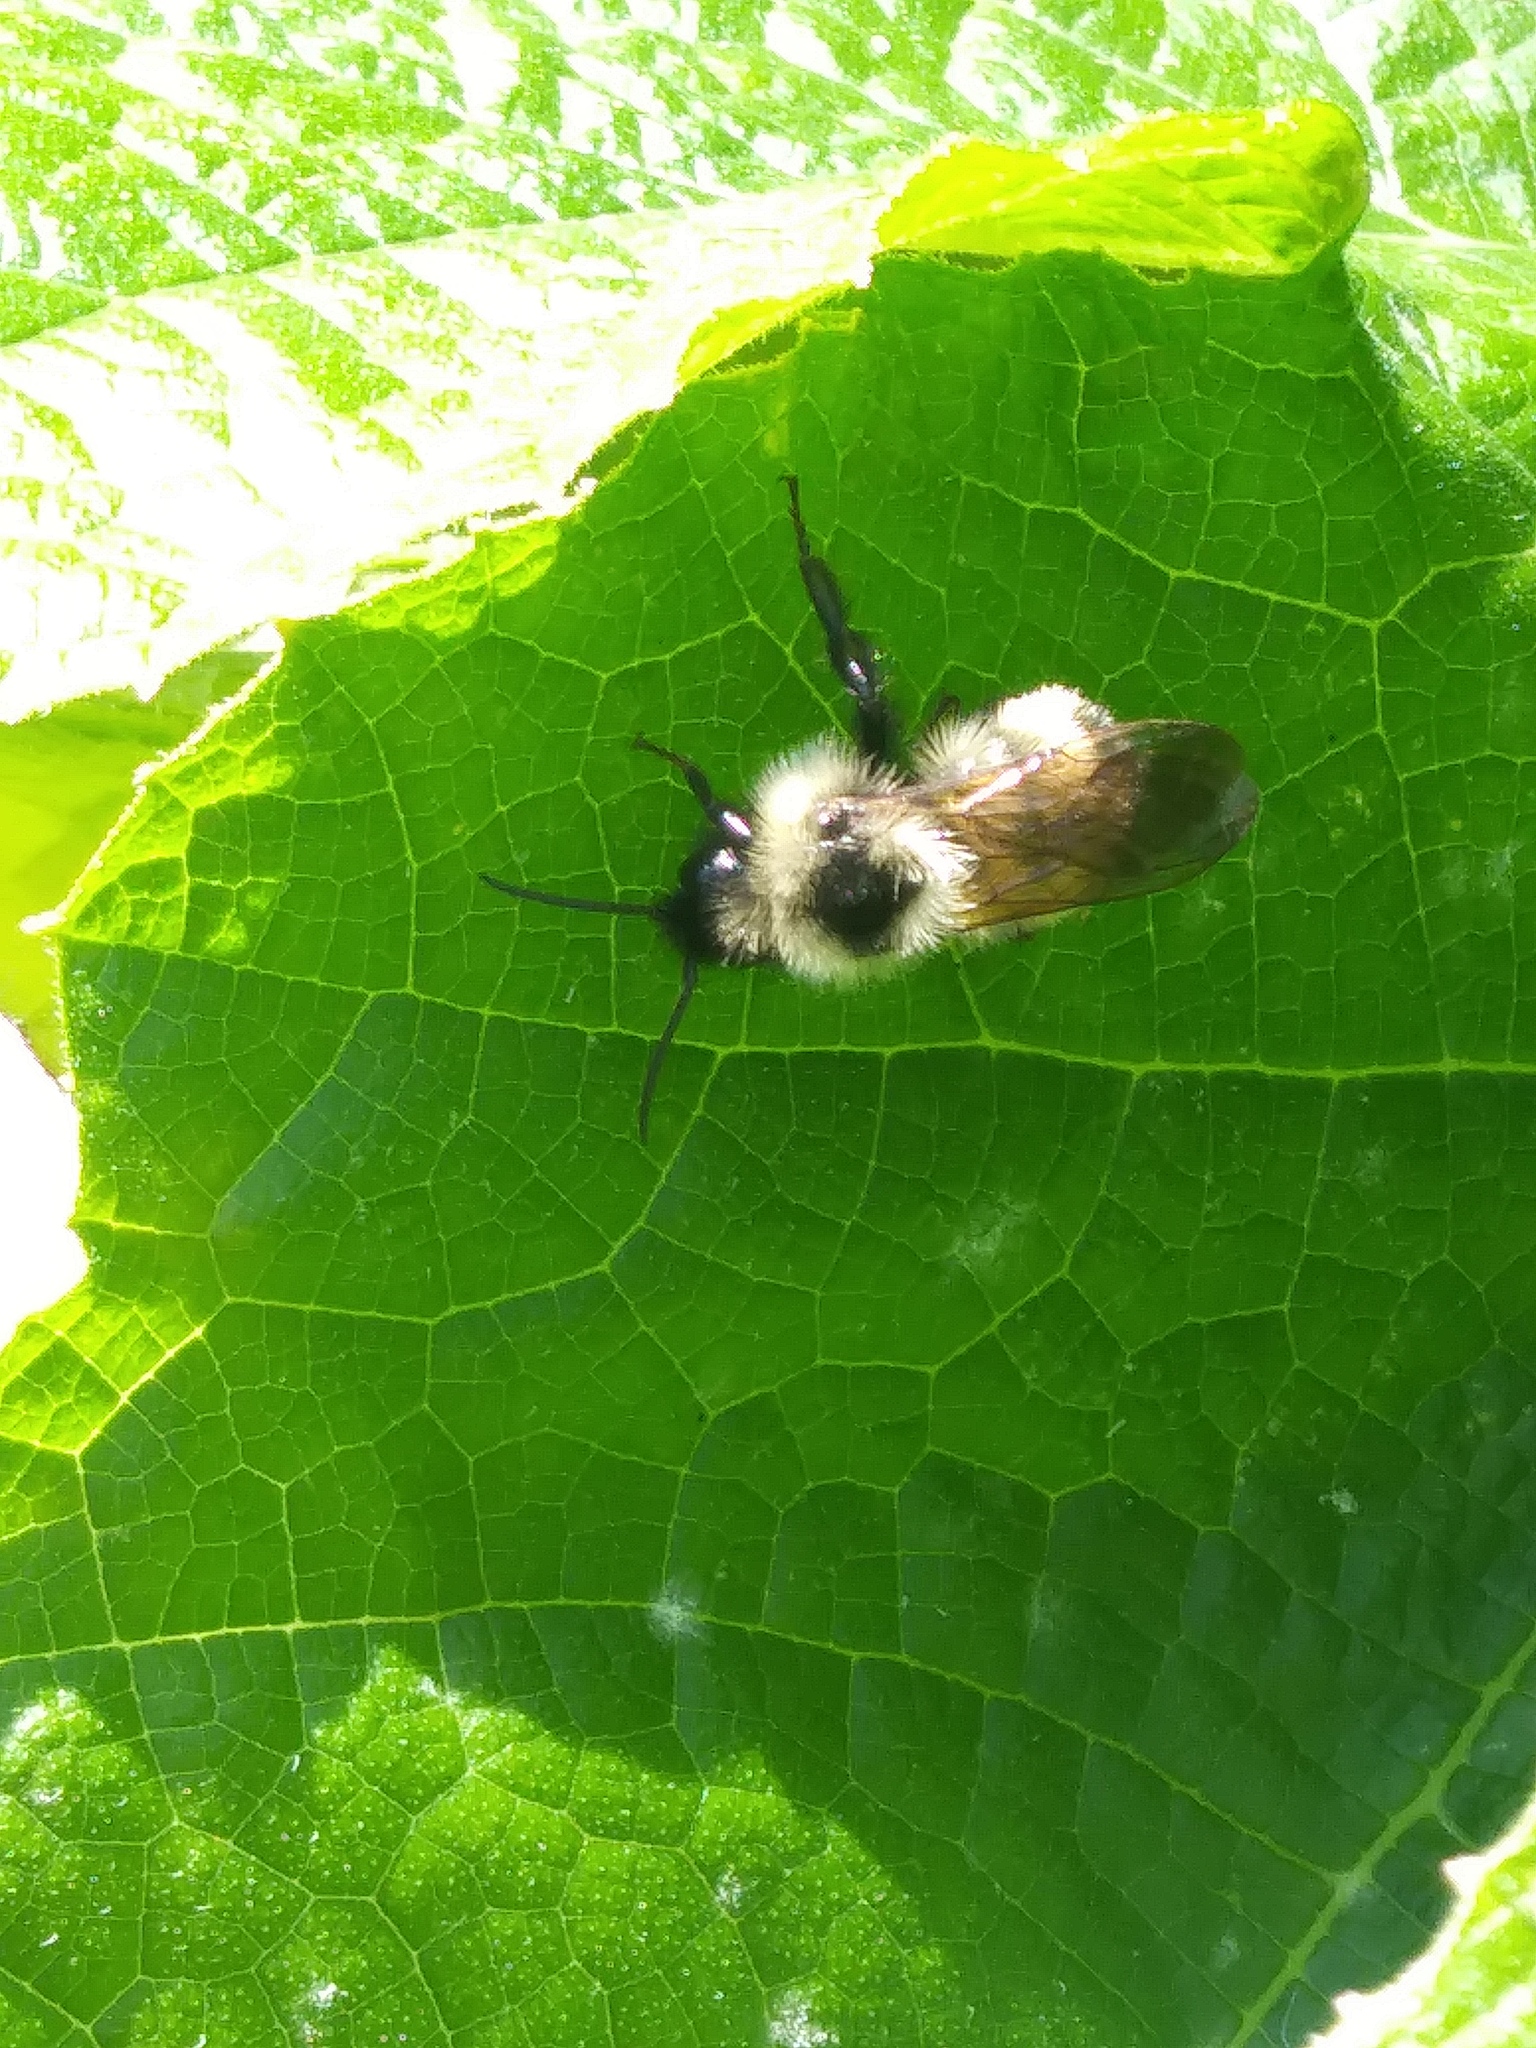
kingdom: Animalia
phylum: Arthropoda
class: Insecta
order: Hymenoptera
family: Apidae
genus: Bombus
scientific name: Bombus citrinus
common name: Lemon cuckoo bumble bee
